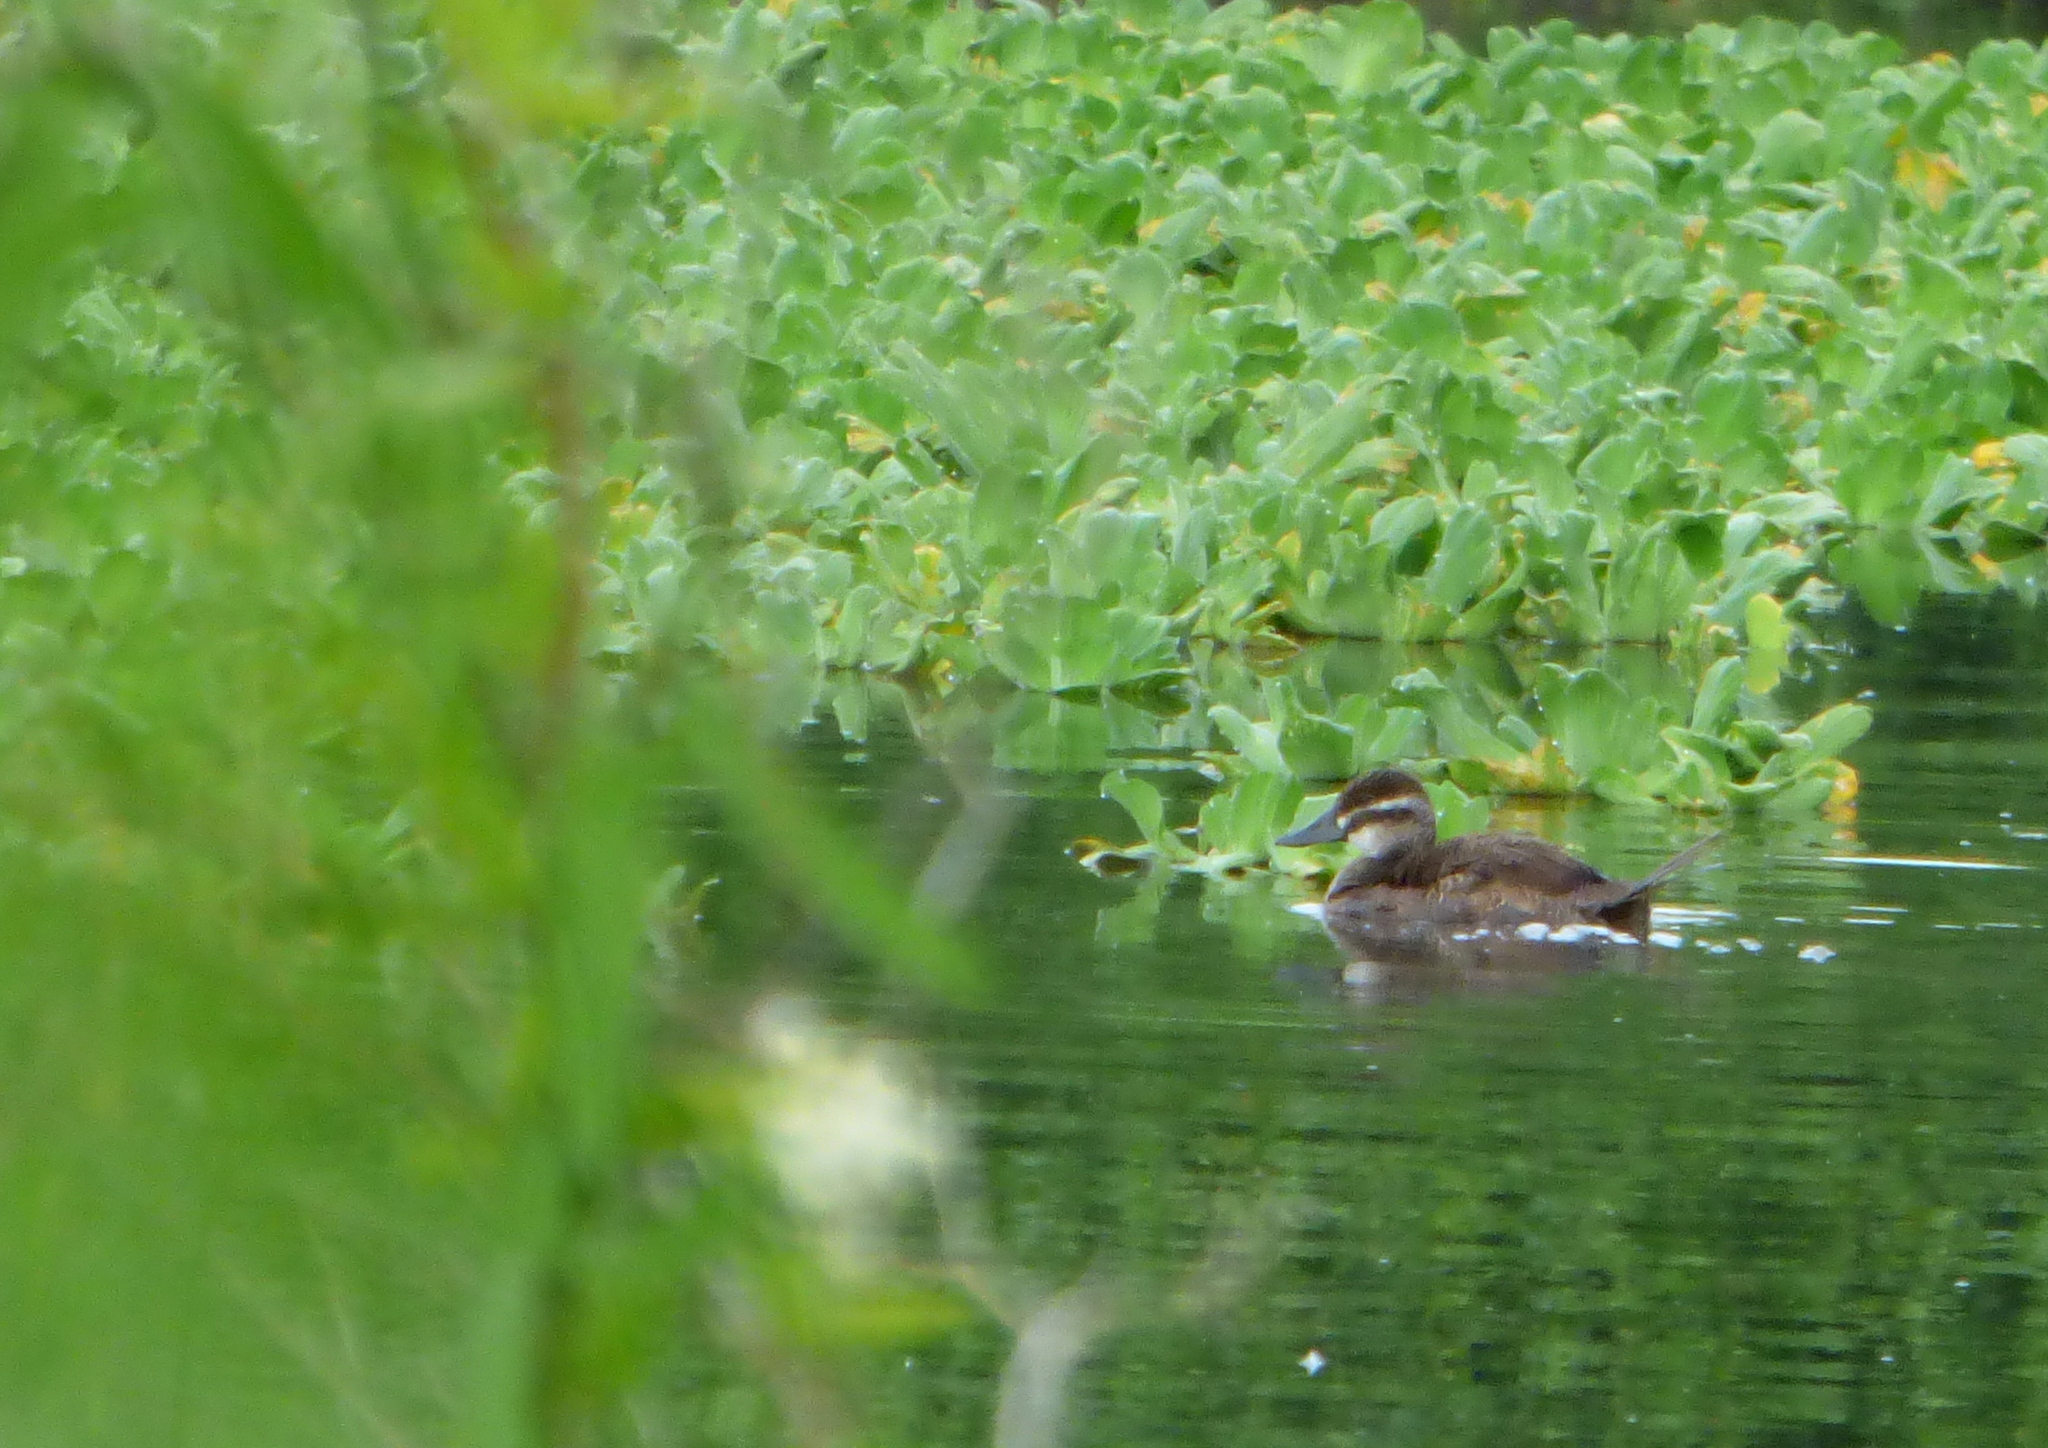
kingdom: Animalia
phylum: Chordata
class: Aves
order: Anseriformes
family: Anatidae
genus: Oxyura
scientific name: Oxyura vittata
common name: Lake duck
